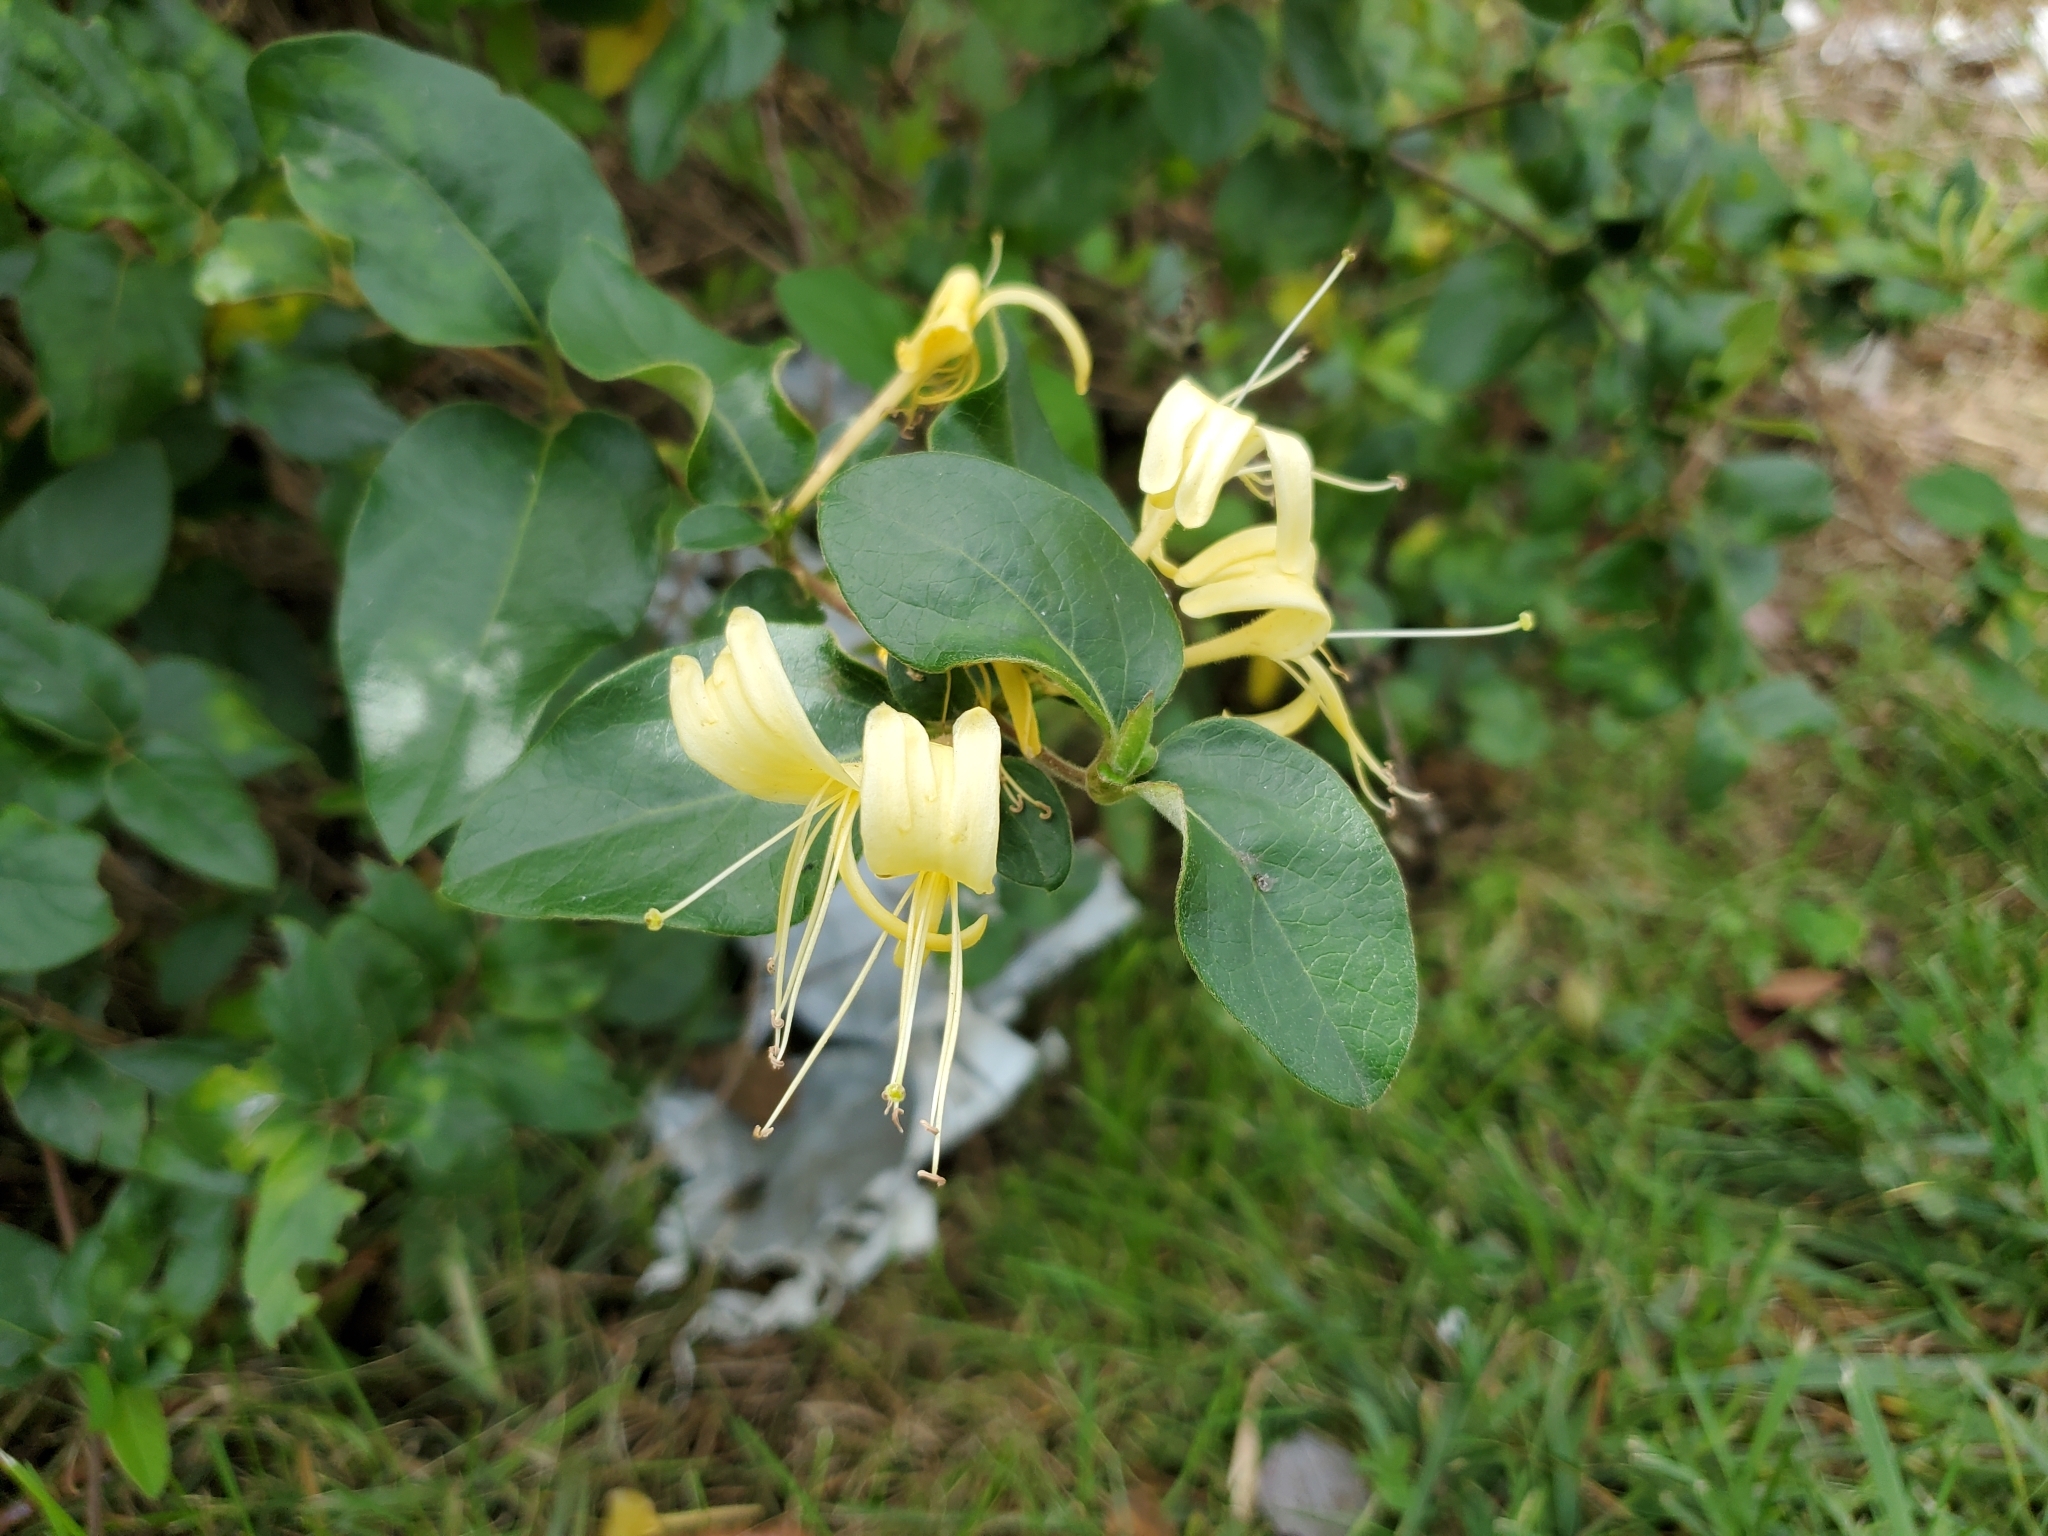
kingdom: Plantae
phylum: Tracheophyta
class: Magnoliopsida
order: Dipsacales
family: Caprifoliaceae
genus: Lonicera
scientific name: Lonicera japonica
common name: Japanese honeysuckle
